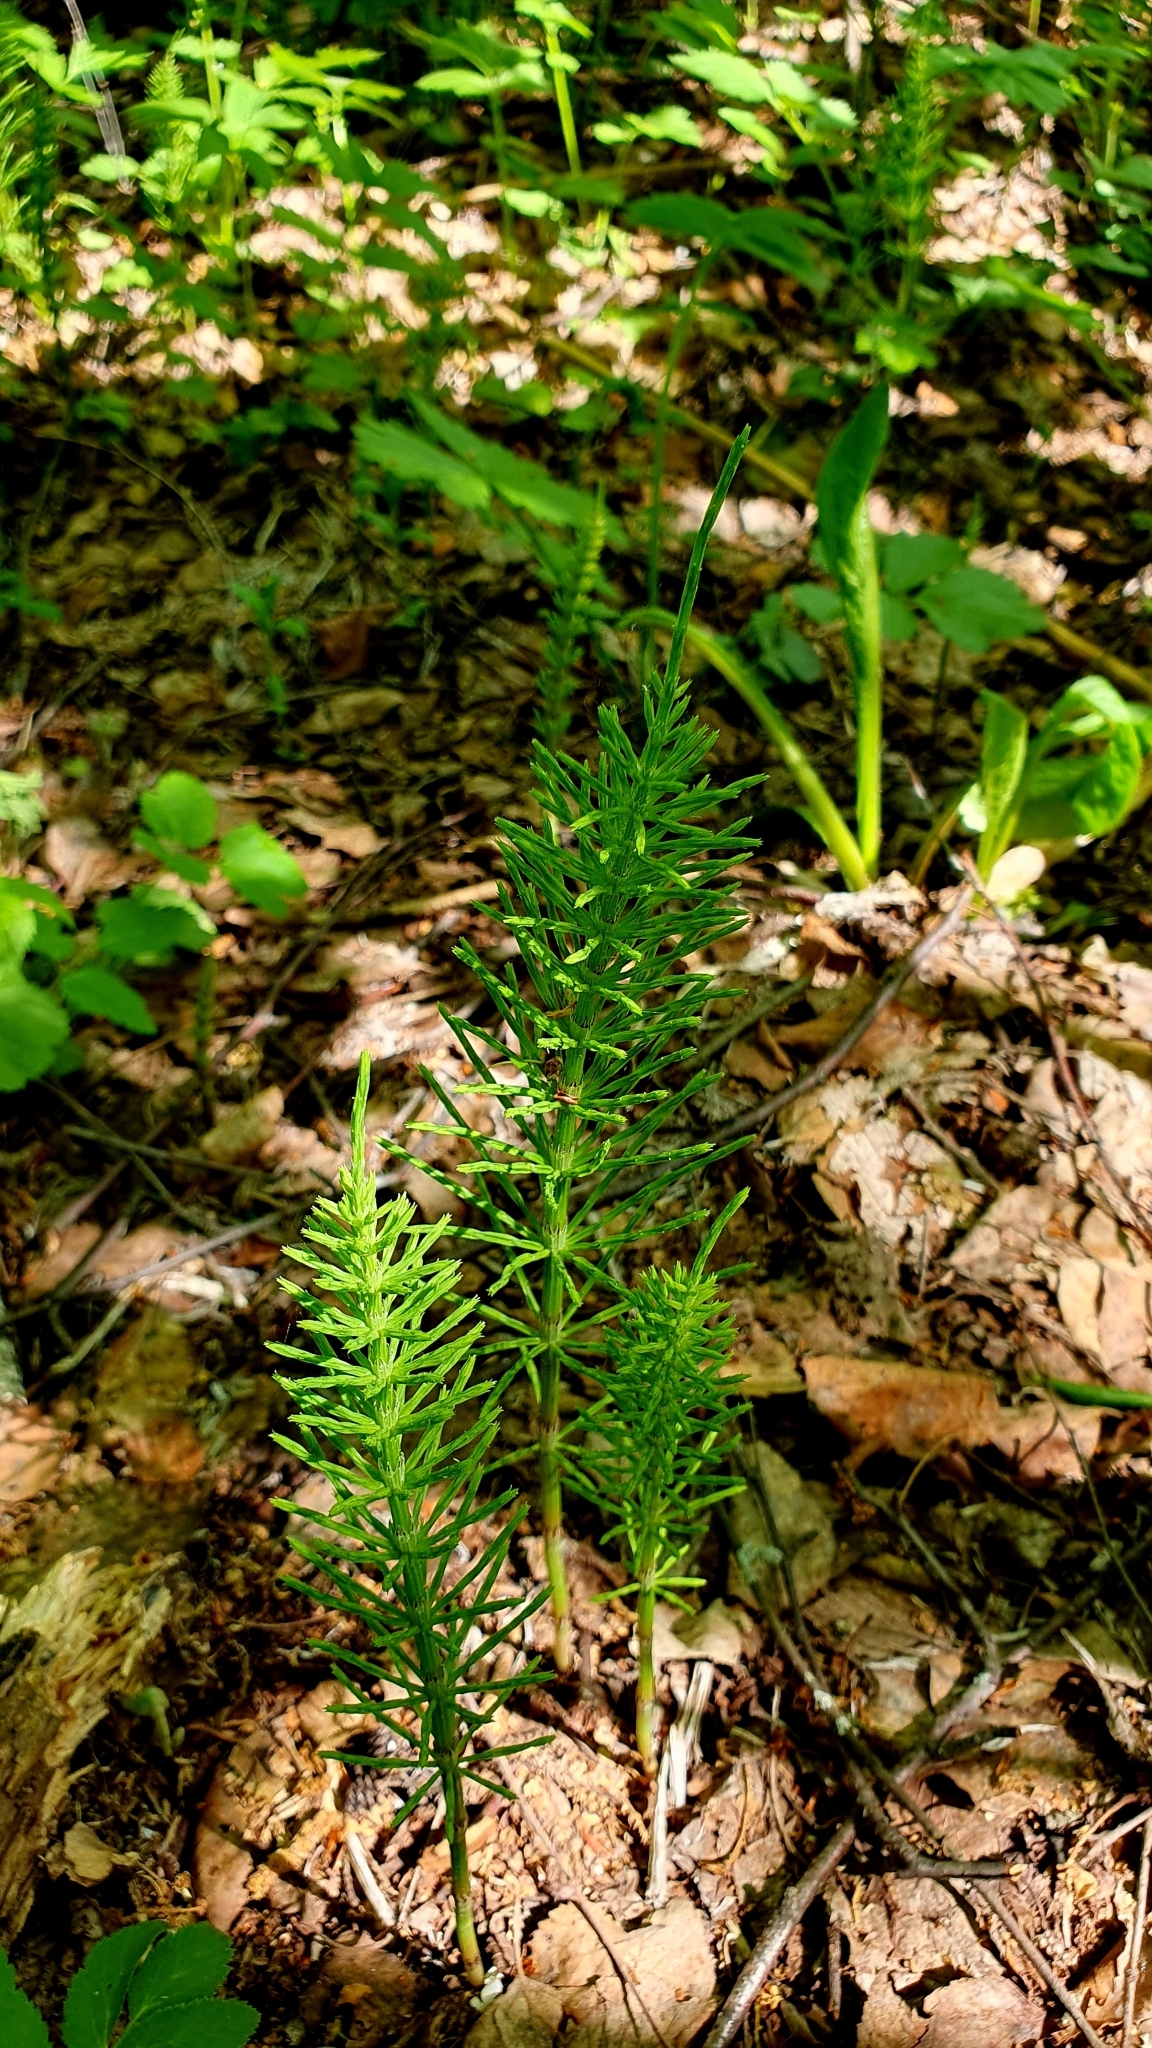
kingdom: Plantae
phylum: Tracheophyta
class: Polypodiopsida
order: Equisetales
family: Equisetaceae
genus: Equisetum
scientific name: Equisetum arvense
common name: Field horsetail
